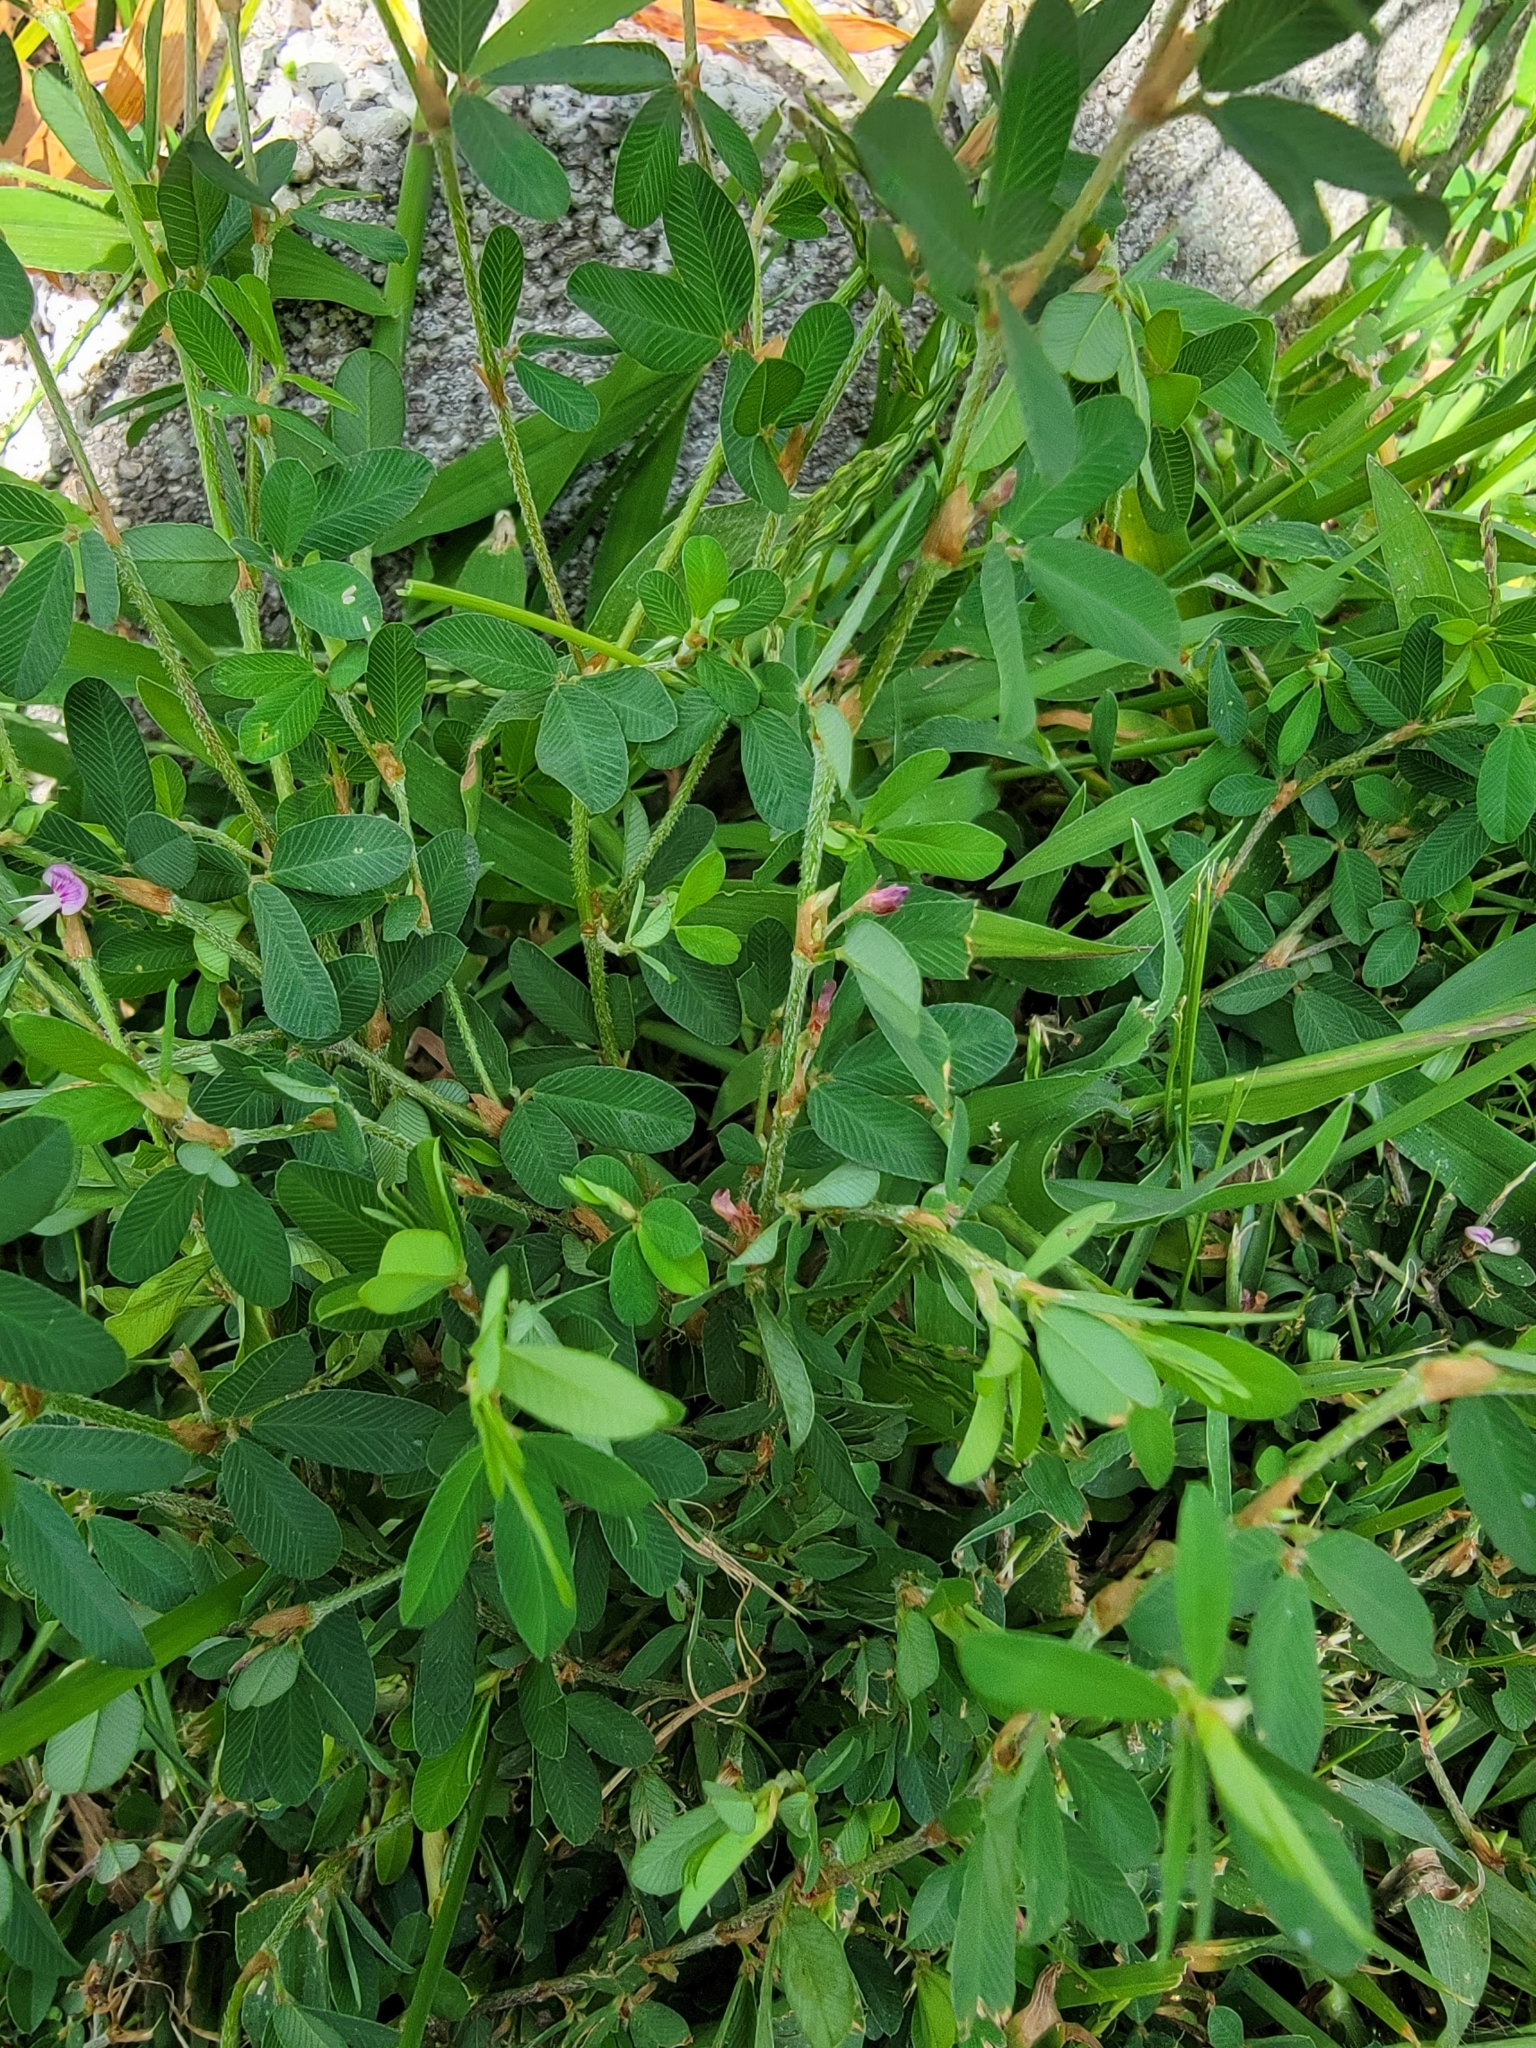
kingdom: Plantae
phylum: Tracheophyta
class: Magnoliopsida
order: Fabales
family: Fabaceae
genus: Kummerowia
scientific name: Kummerowia striata
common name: Japanese clover
